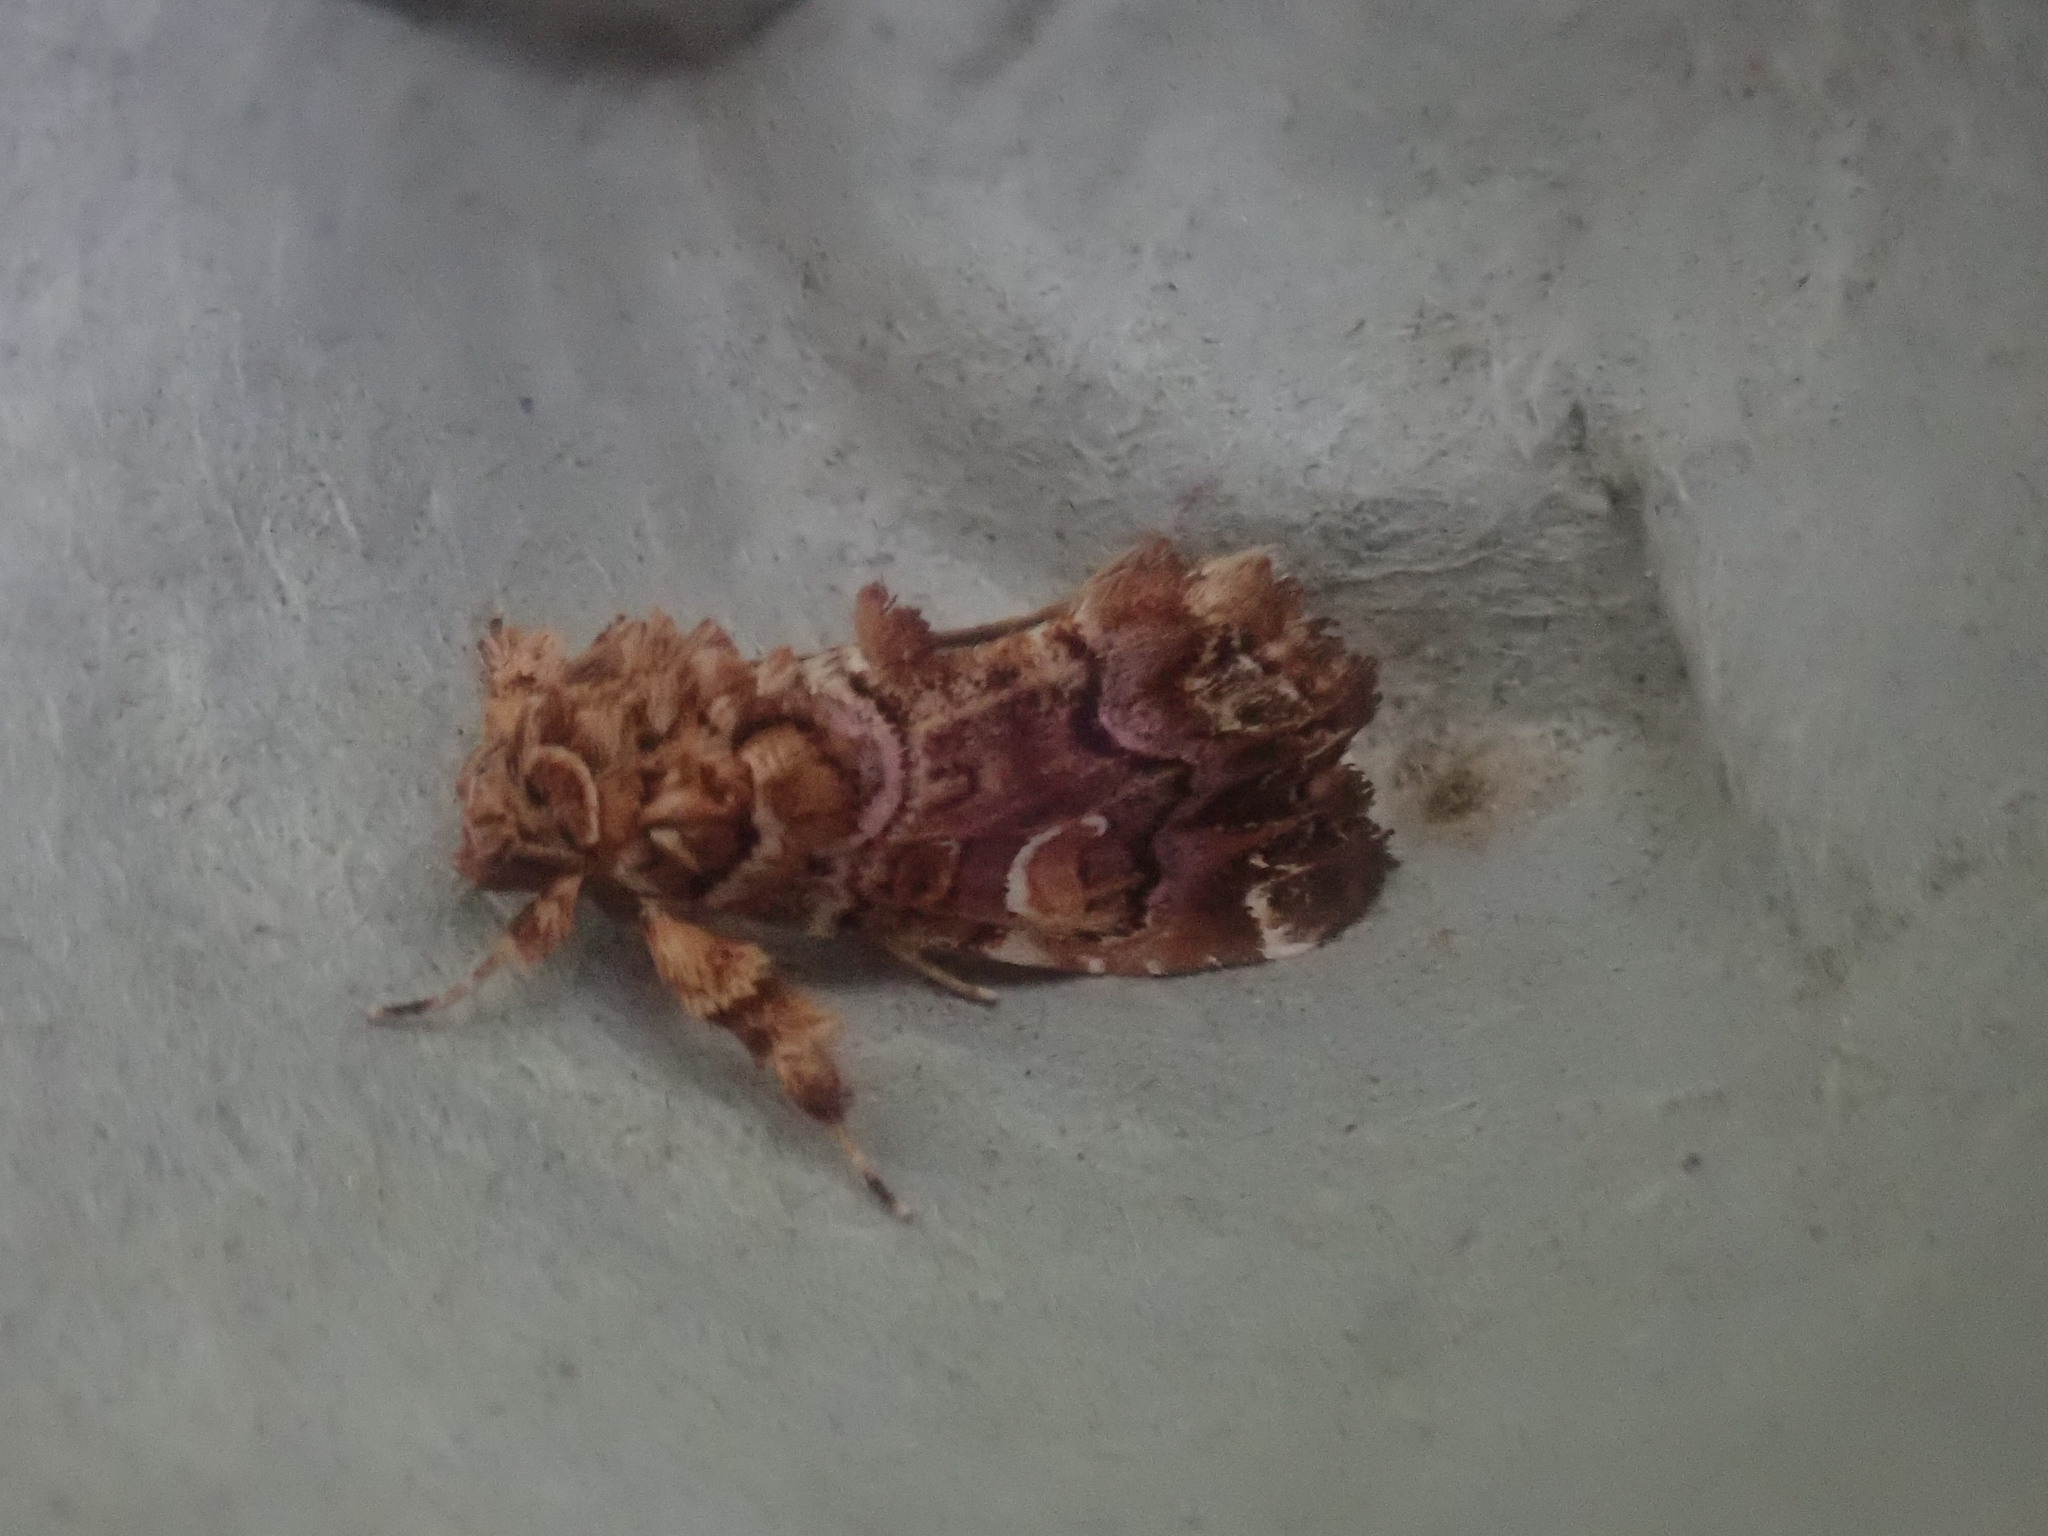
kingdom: Animalia
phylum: Arthropoda
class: Insecta
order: Lepidoptera
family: Noctuidae
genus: Callopistria
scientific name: Callopistria mollissima
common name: Pink-shaded fern moth
